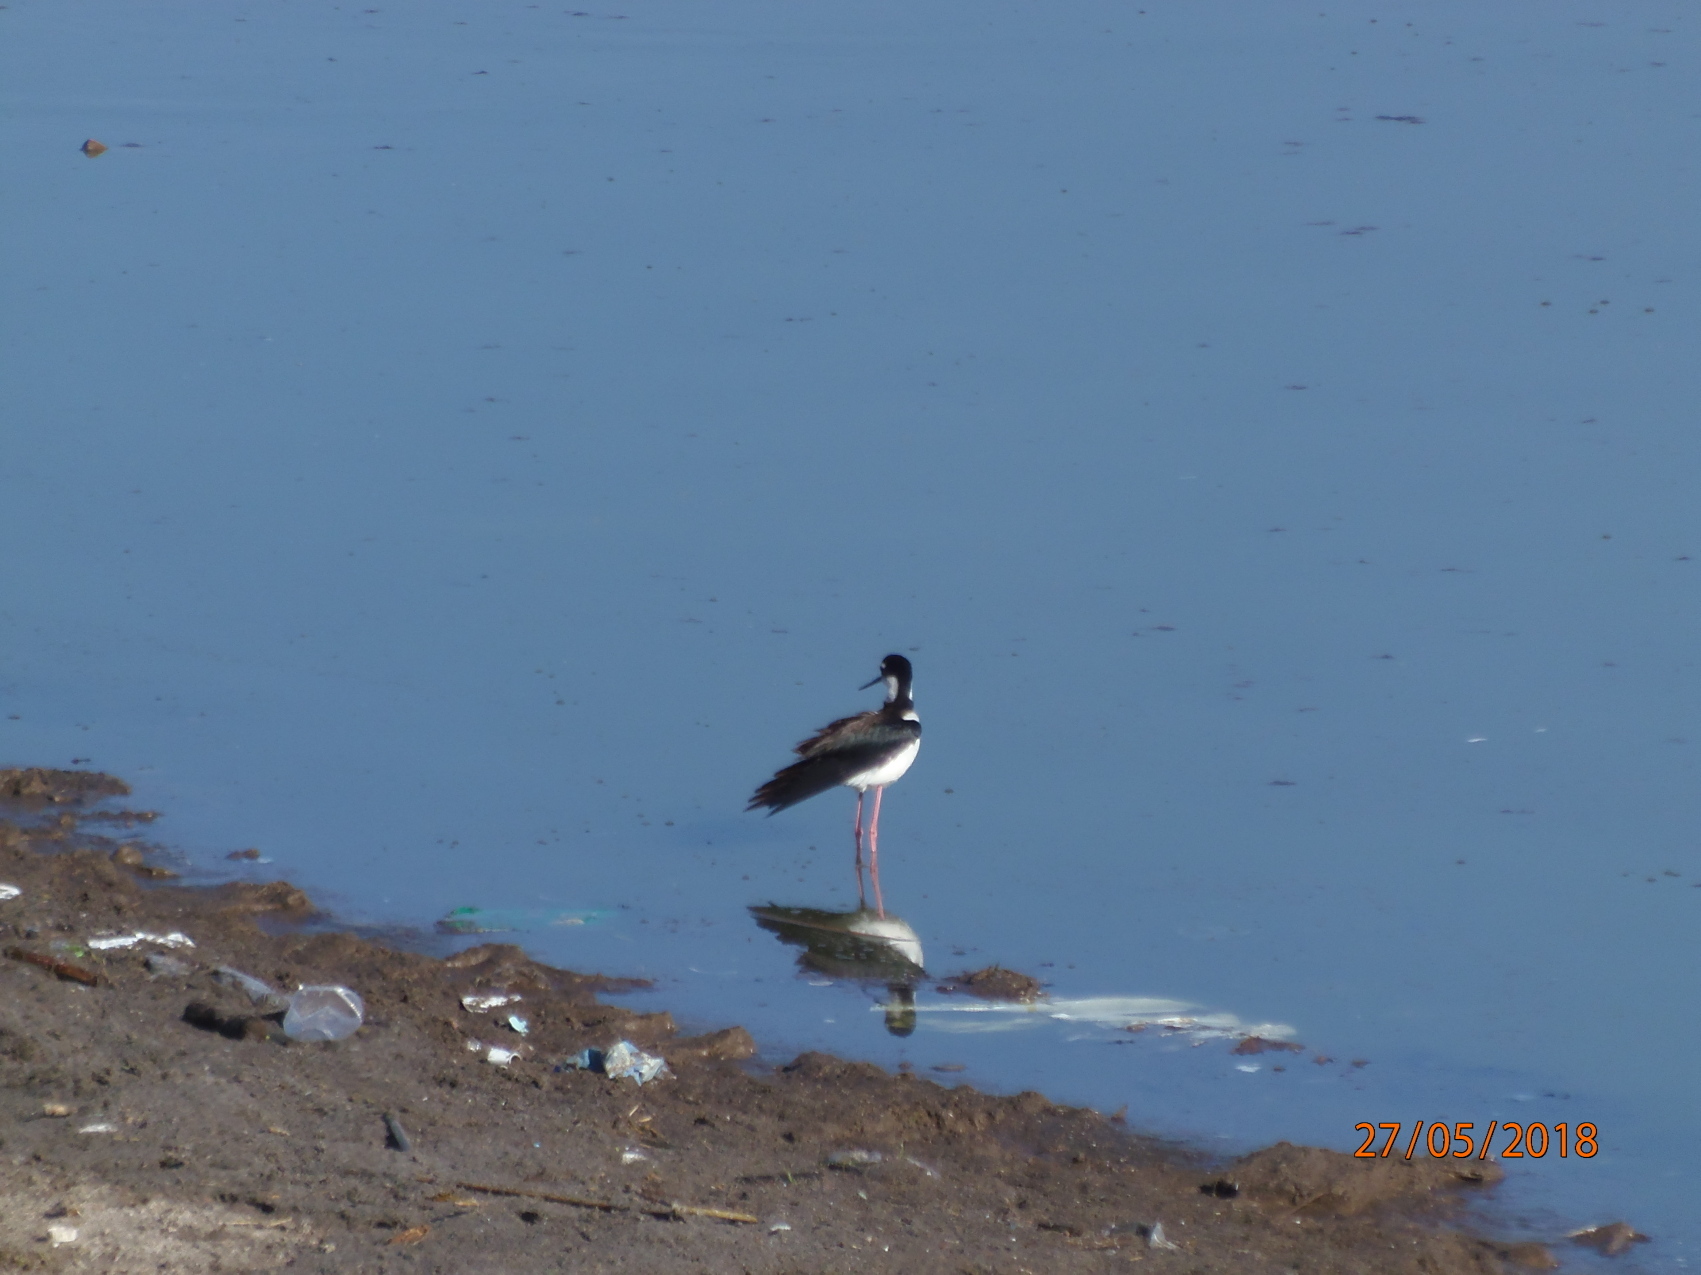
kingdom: Animalia
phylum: Chordata
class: Aves
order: Charadriiformes
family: Recurvirostridae
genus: Himantopus
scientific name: Himantopus mexicanus
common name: Black-necked stilt
